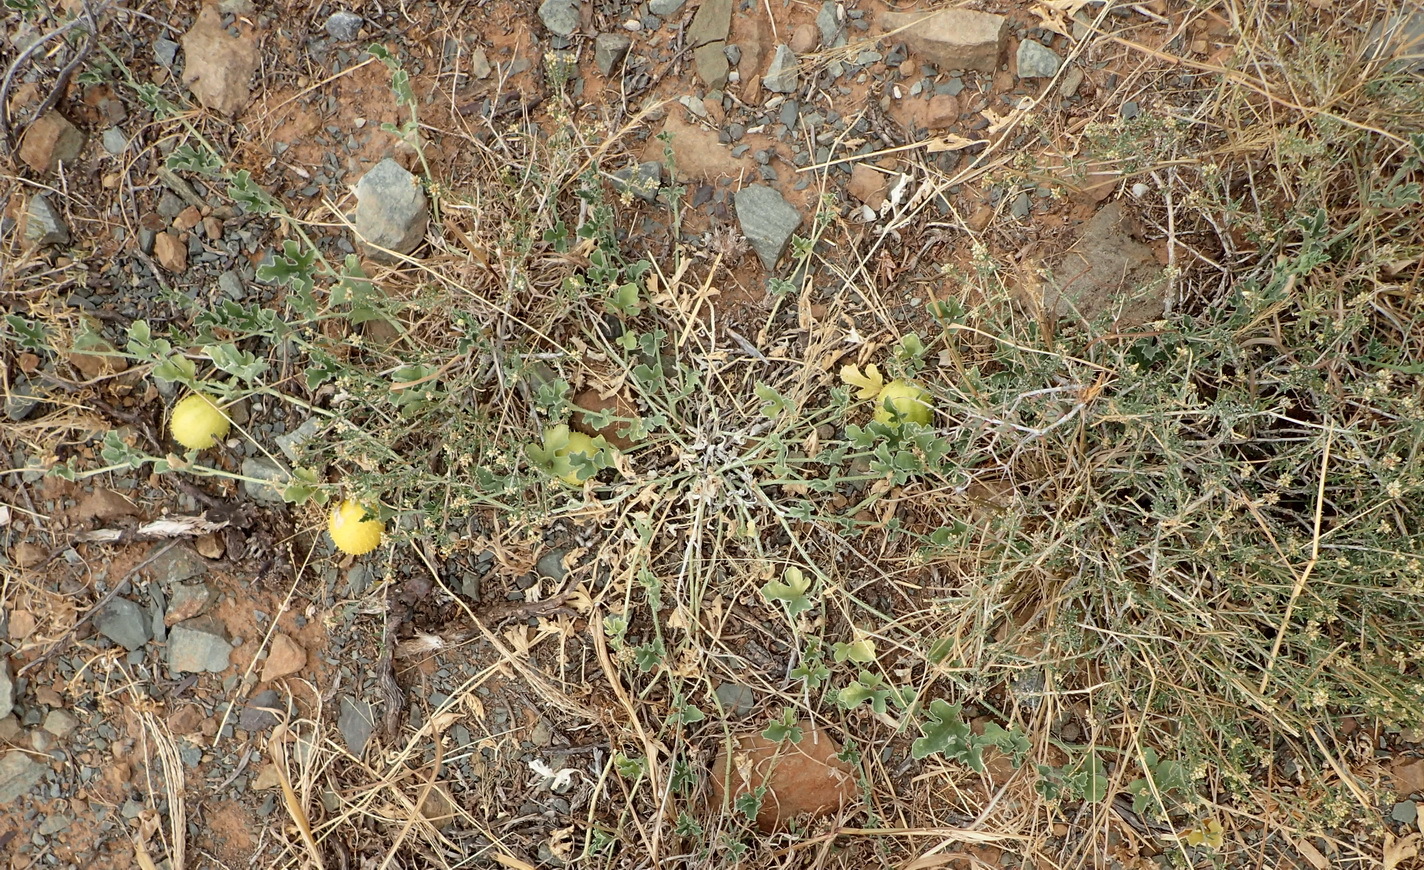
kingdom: Plantae
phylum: Tracheophyta
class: Magnoliopsida
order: Cucurbitales
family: Cucurbitaceae
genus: Cucumis
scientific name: Cucumis zeyheri
